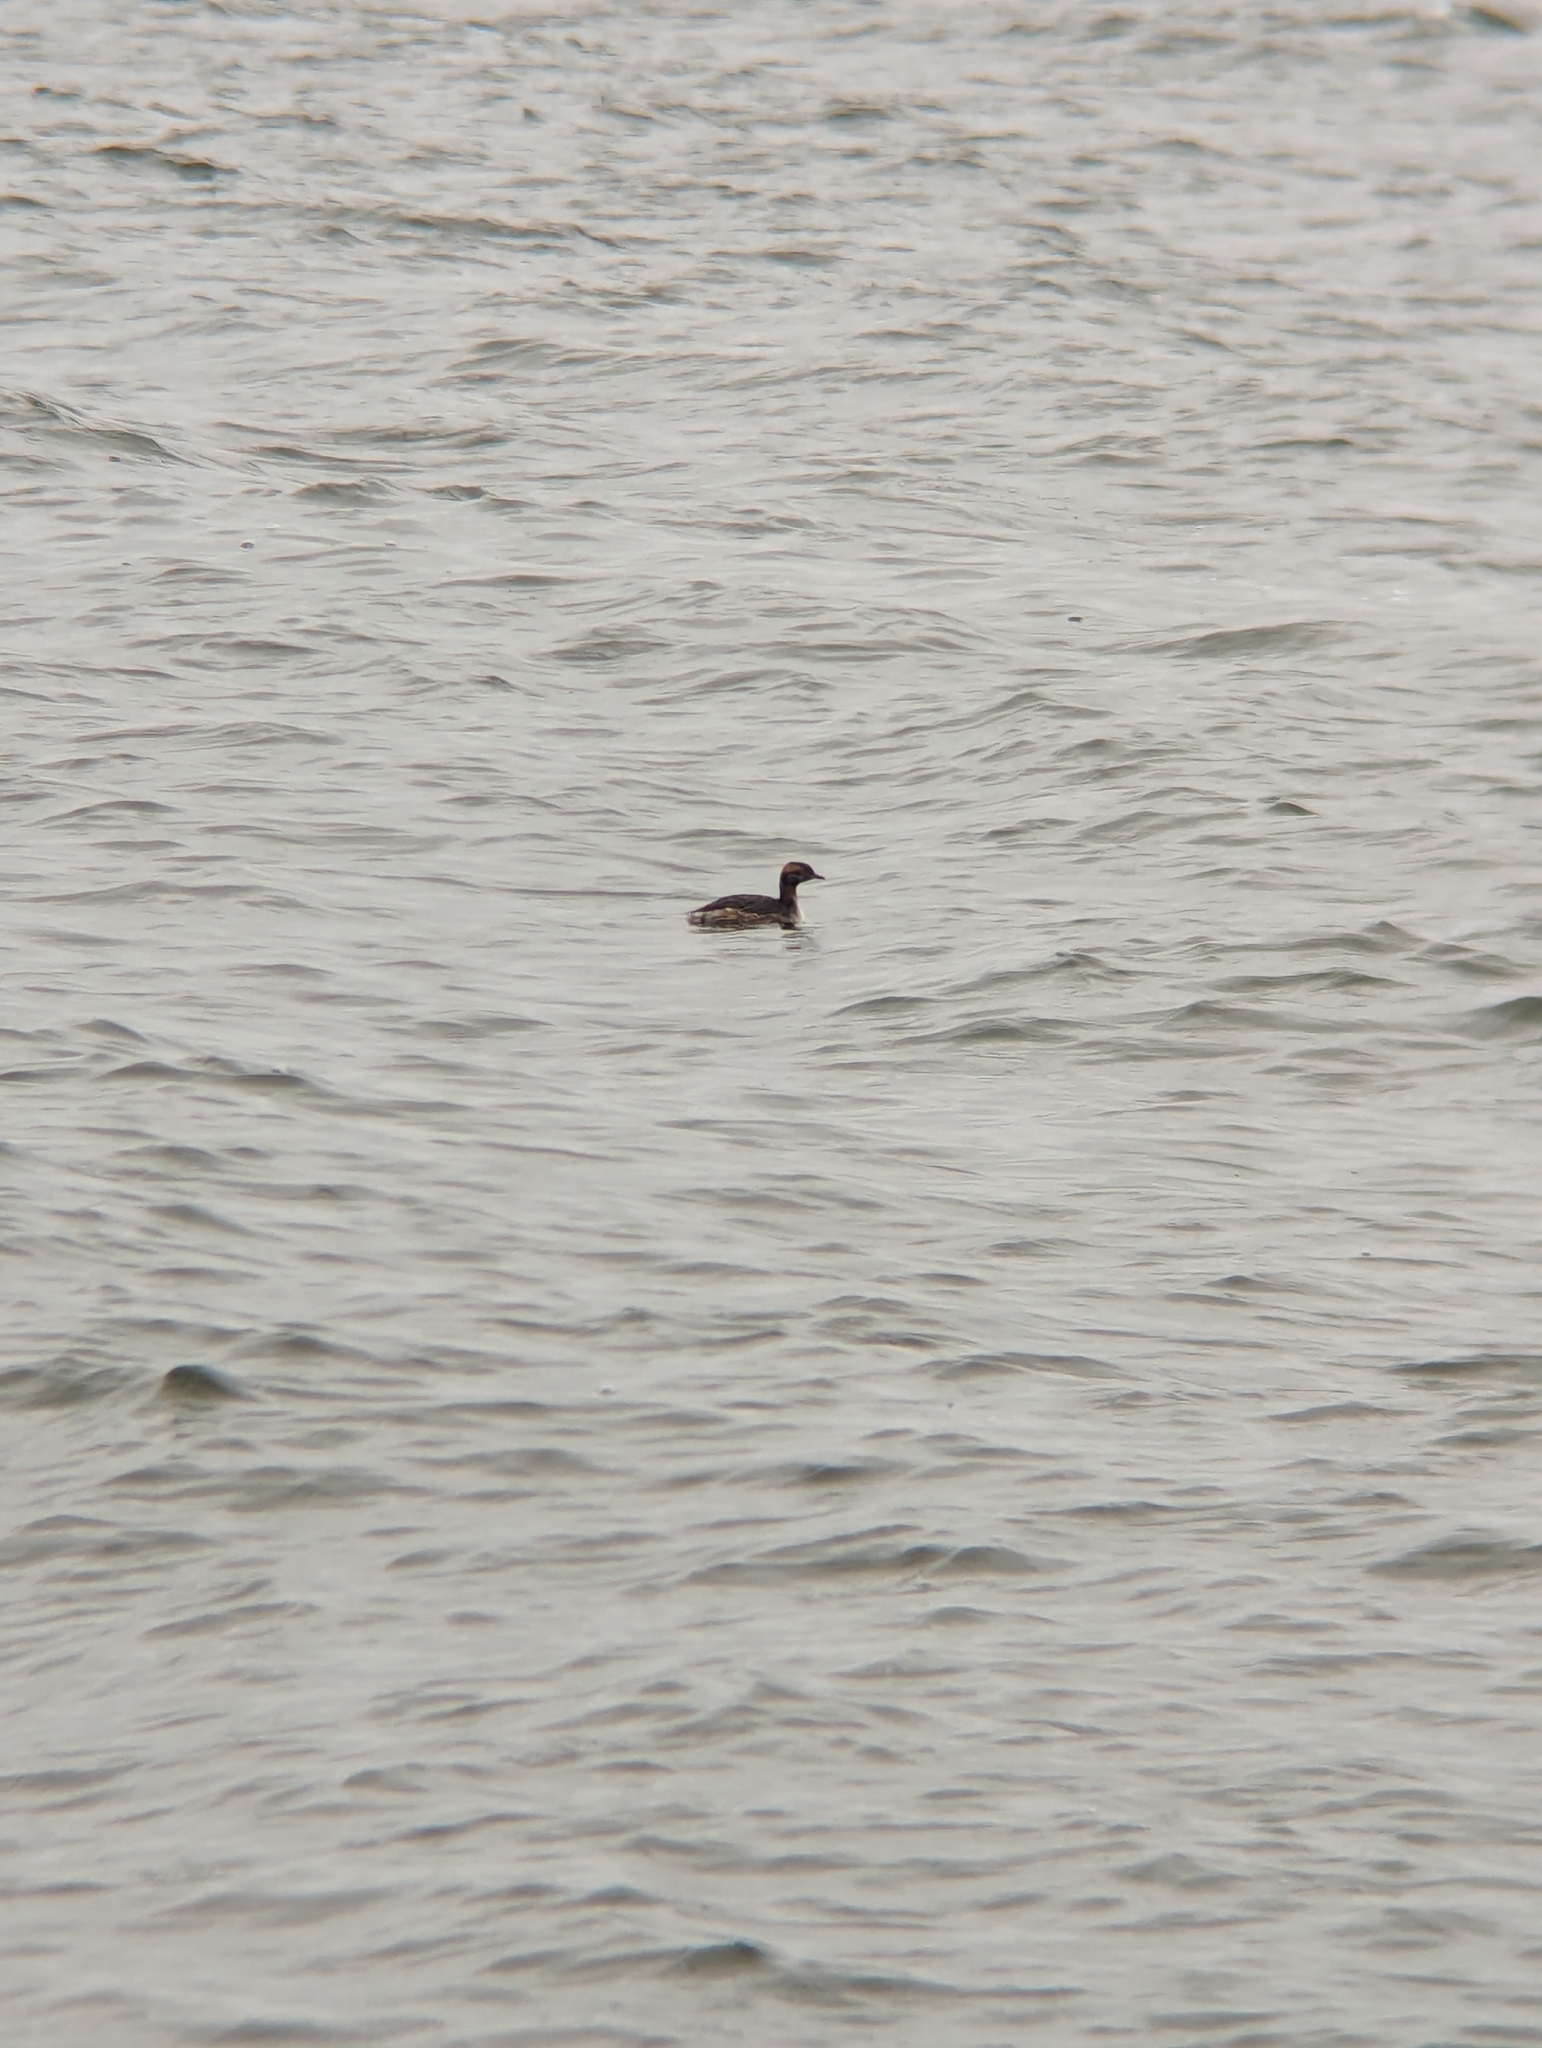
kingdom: Animalia
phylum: Chordata
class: Aves
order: Podicipediformes
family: Podicipedidae
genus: Podiceps
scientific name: Podiceps auritus
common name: Horned grebe
